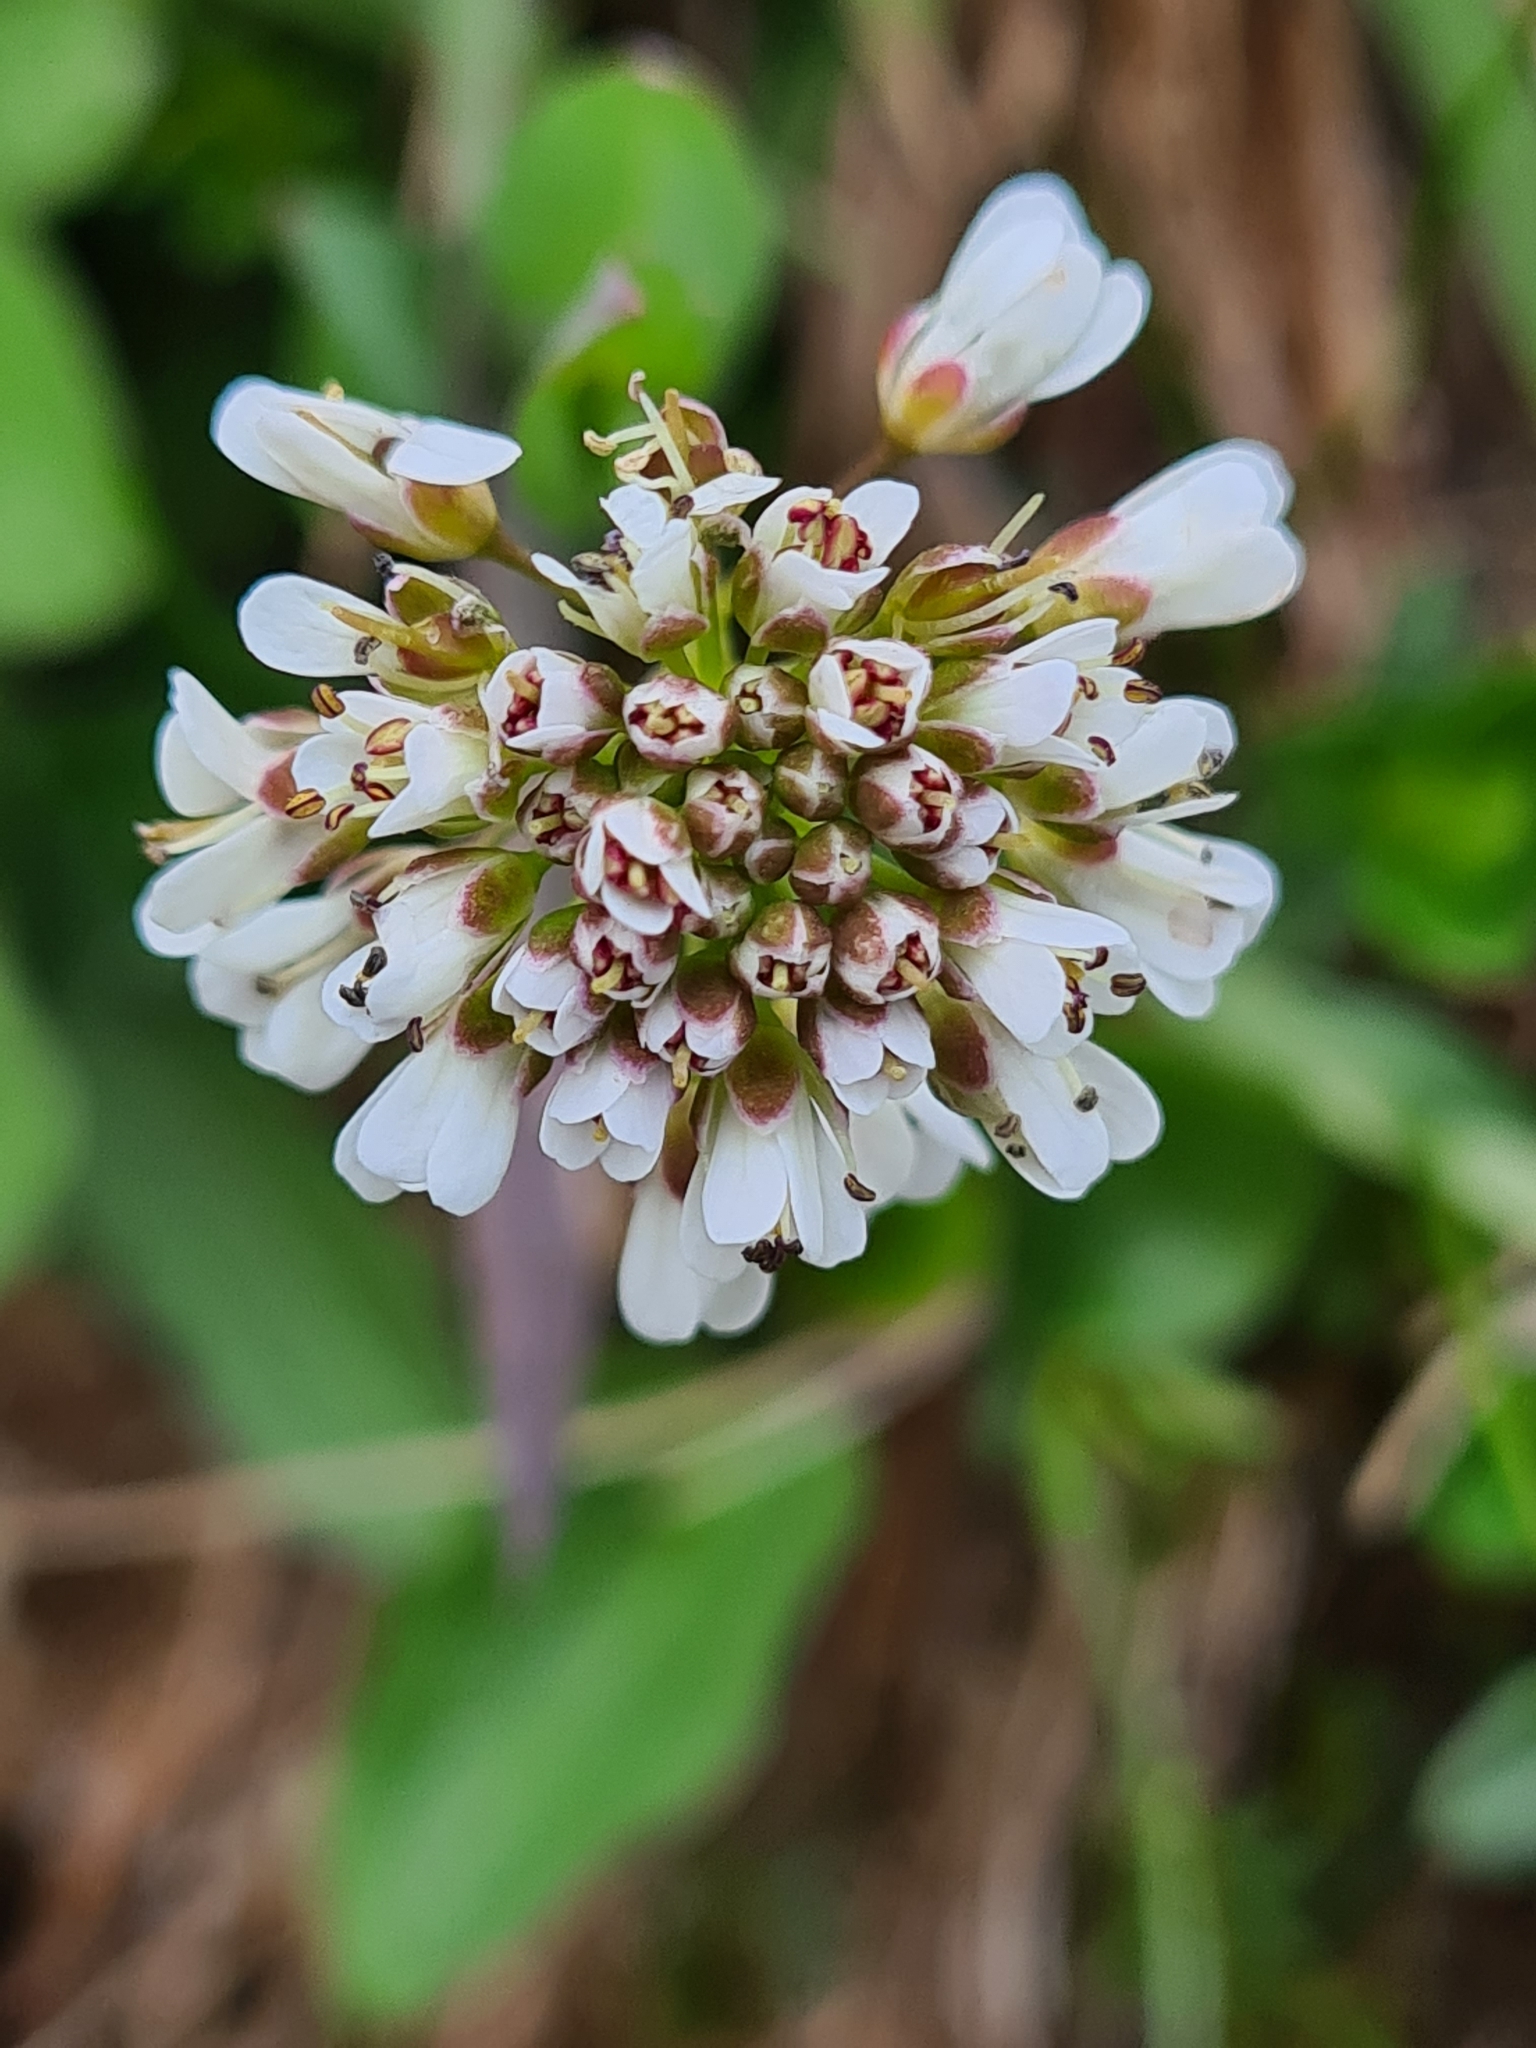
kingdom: Plantae
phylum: Tracheophyta
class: Magnoliopsida
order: Brassicales
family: Brassicaceae
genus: Noccaea
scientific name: Noccaea caerulescens
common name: Alpine pennycress
